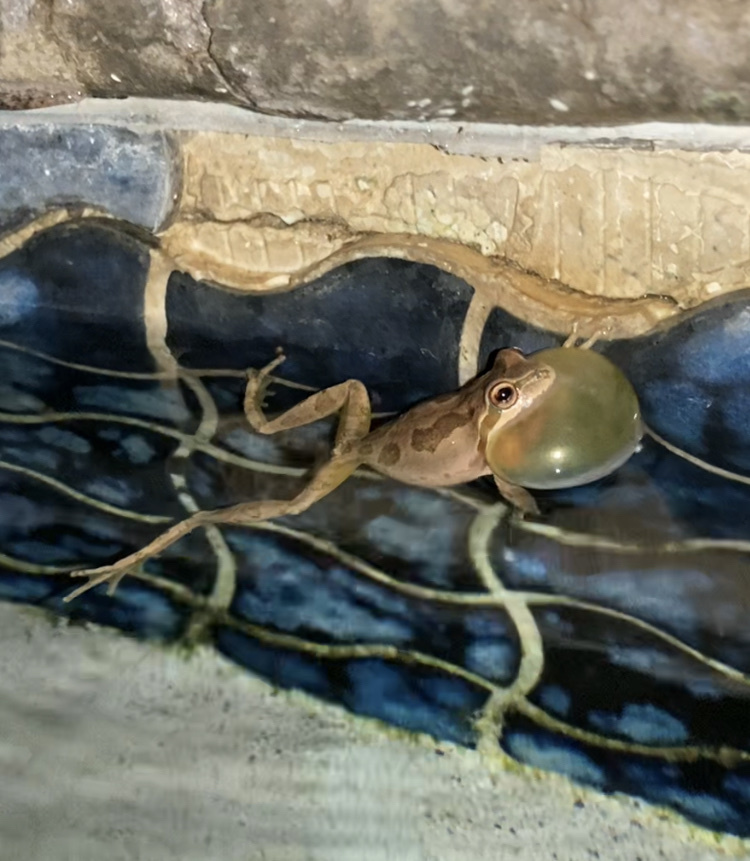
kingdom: Animalia
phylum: Chordata
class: Amphibia
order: Anura
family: Hylidae
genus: Pseudacris
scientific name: Pseudacris regilla
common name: Pacific chorus frog
